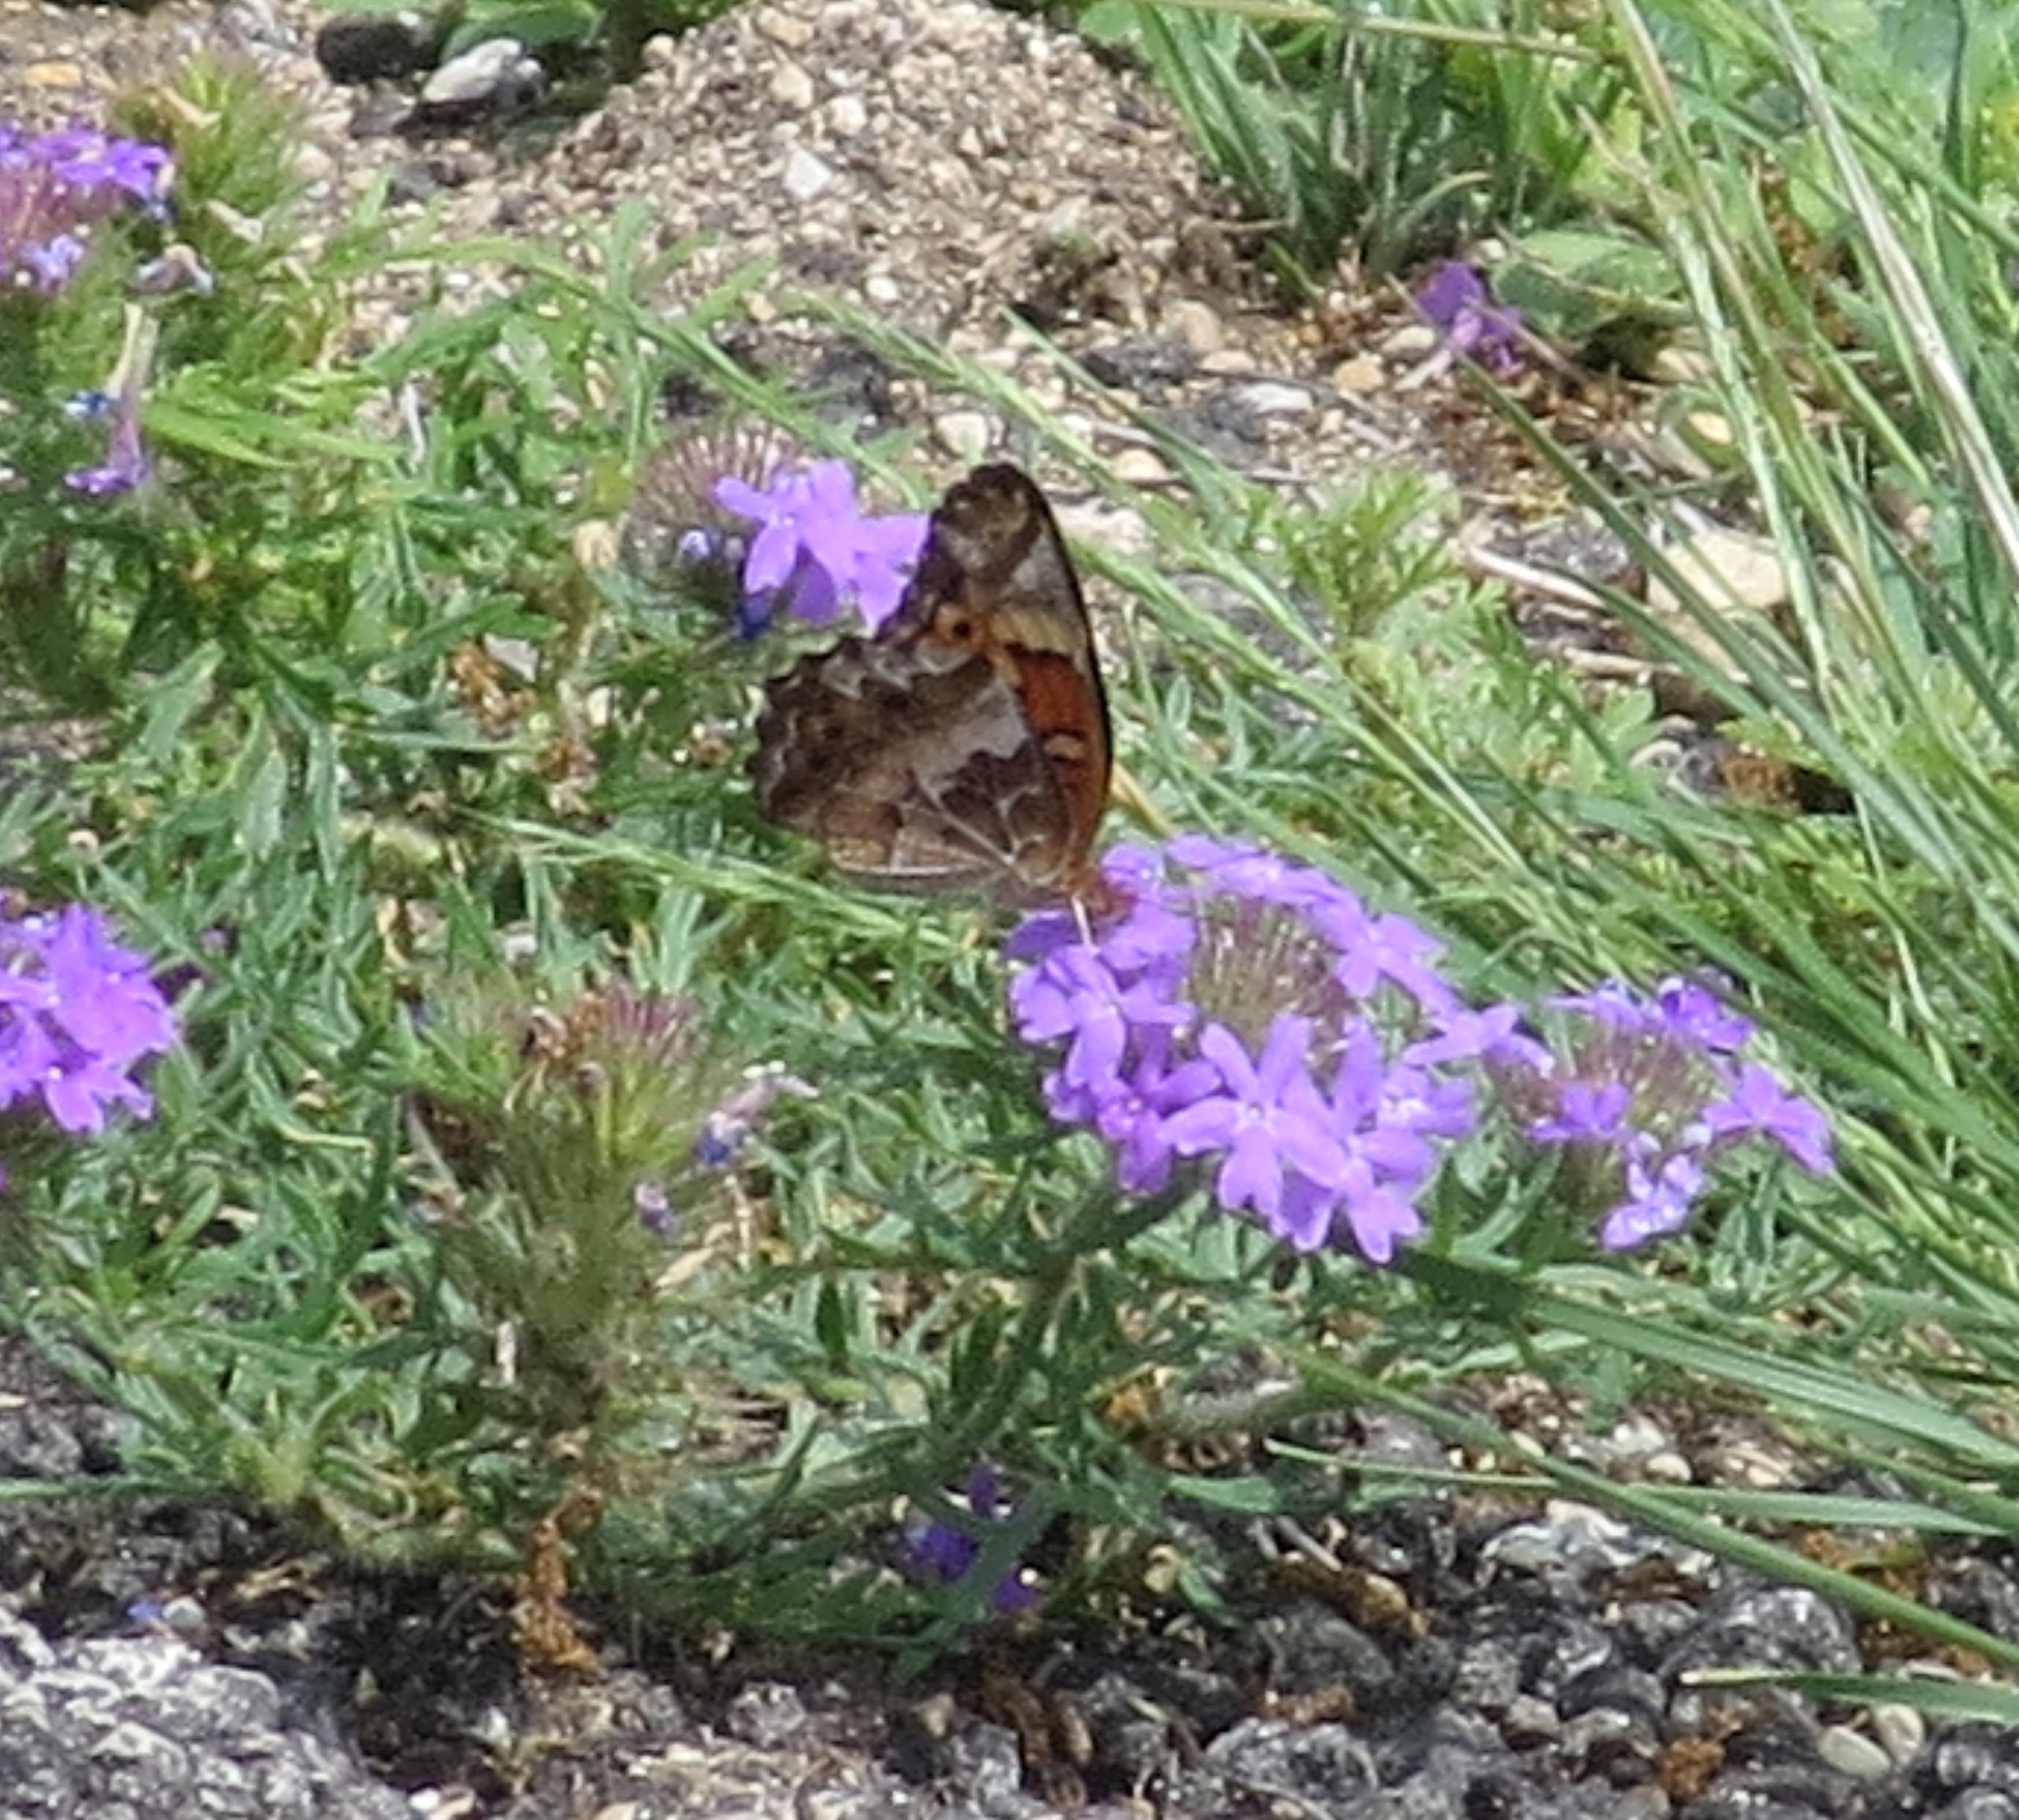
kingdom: Animalia
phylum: Arthropoda
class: Insecta
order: Lepidoptera
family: Nymphalidae
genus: Euptoieta
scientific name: Euptoieta claudia
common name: Variegated fritillary
